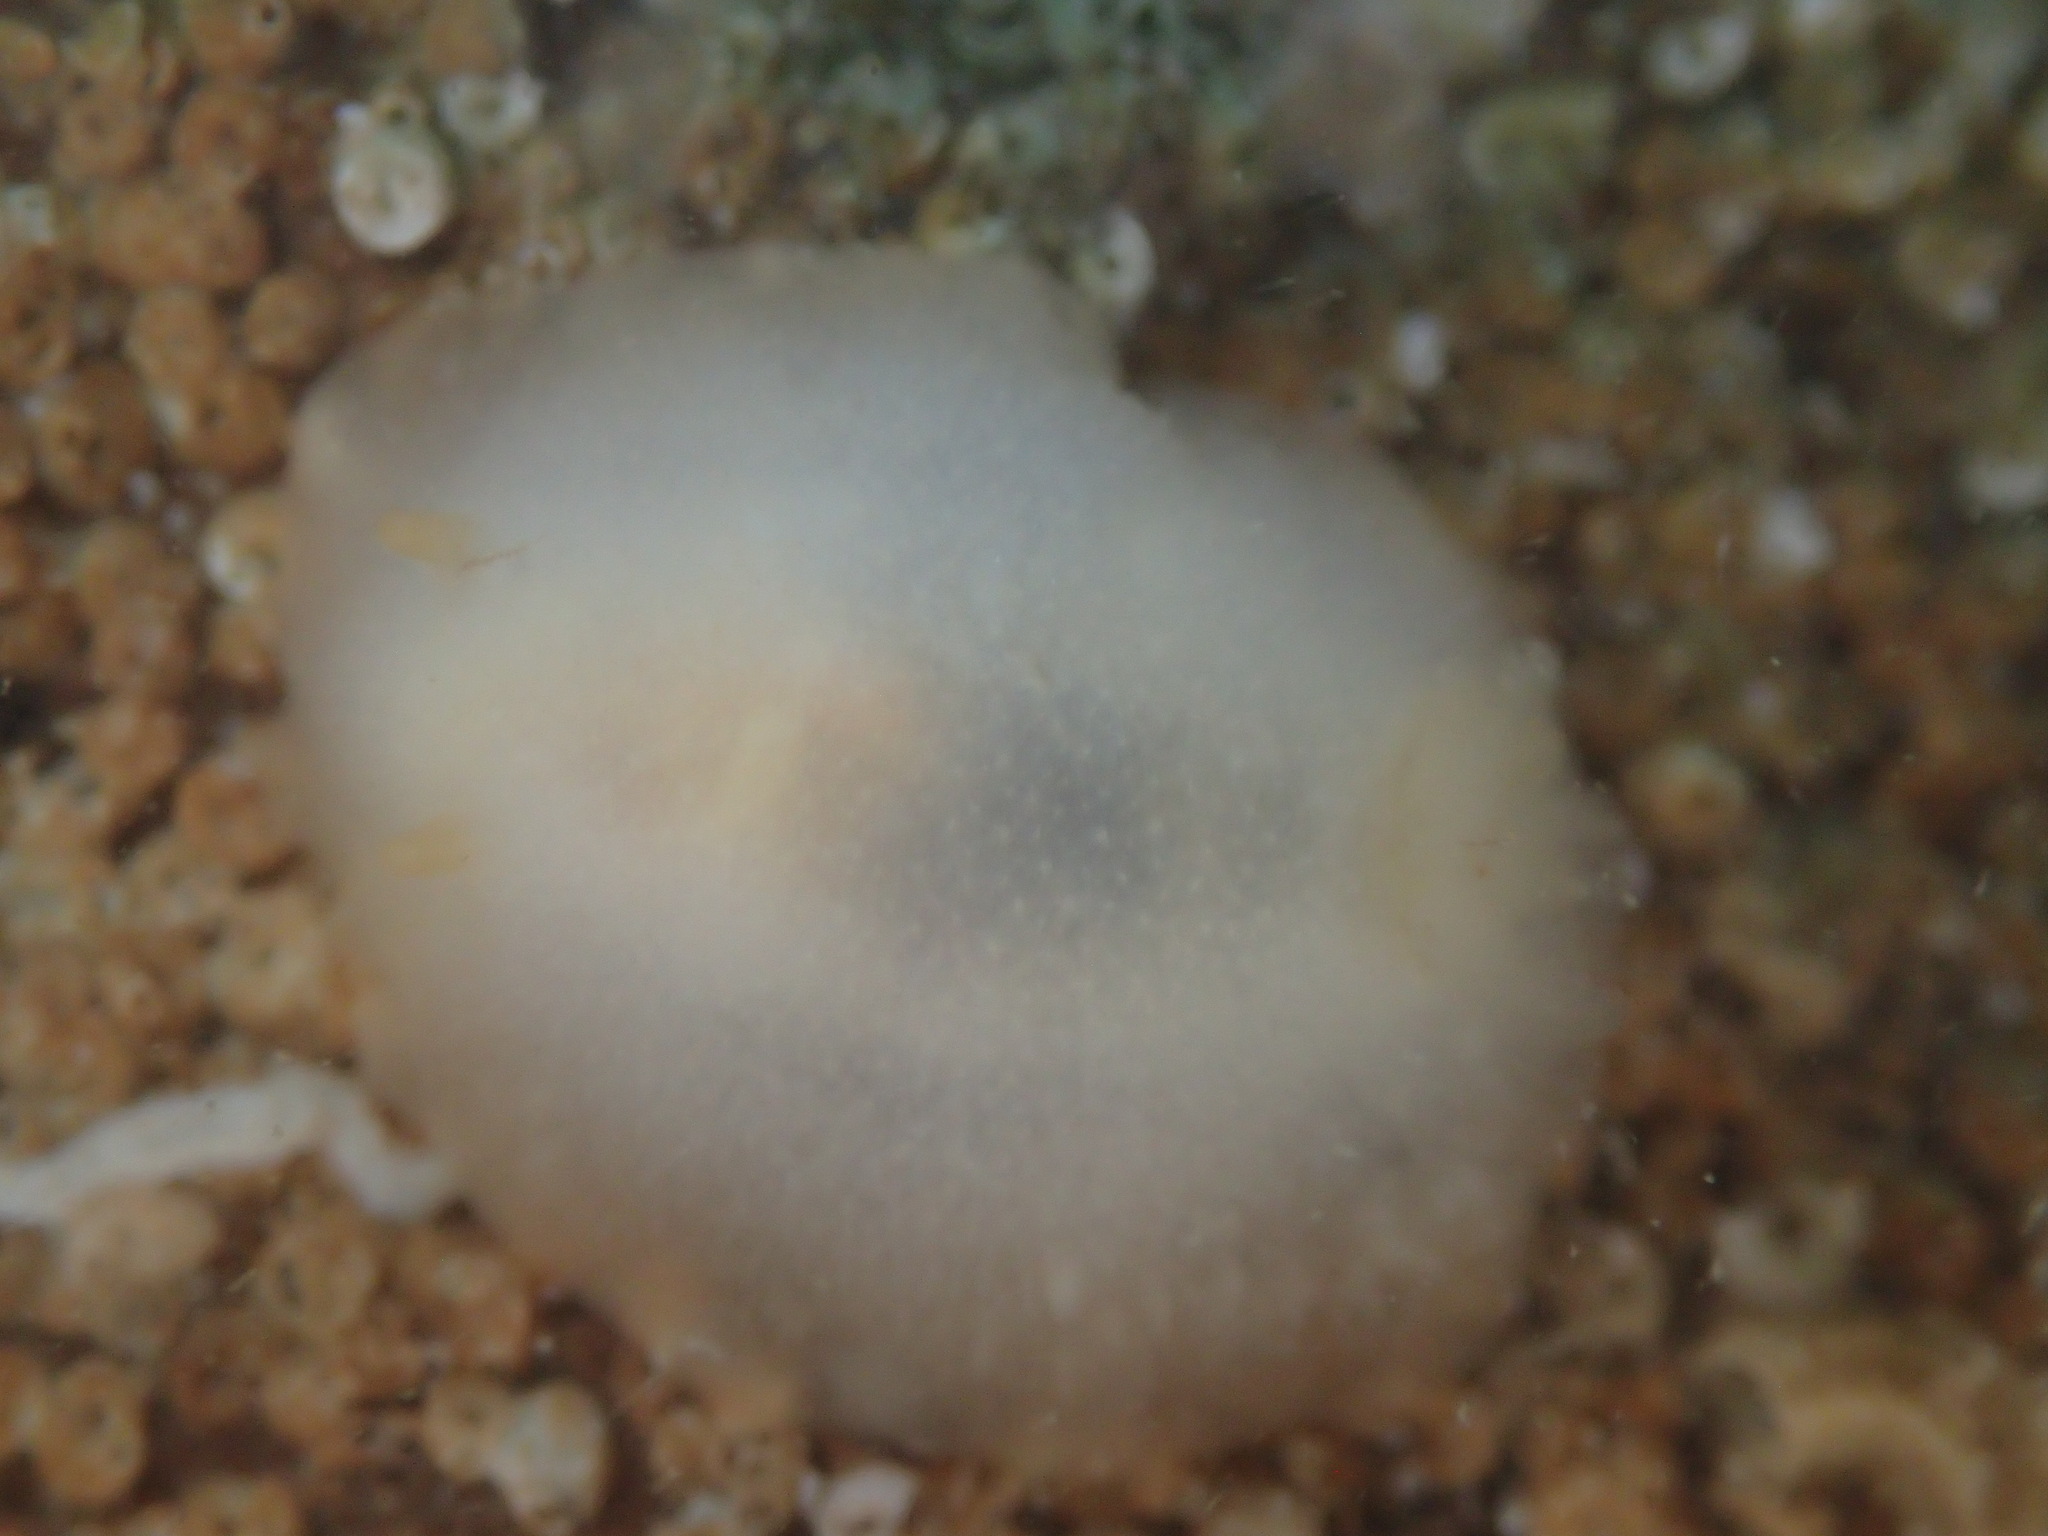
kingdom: Animalia
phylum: Mollusca
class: Gastropoda
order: Nudibranchia
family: Dorididae
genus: Conualevia
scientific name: Conualevia marcusi
